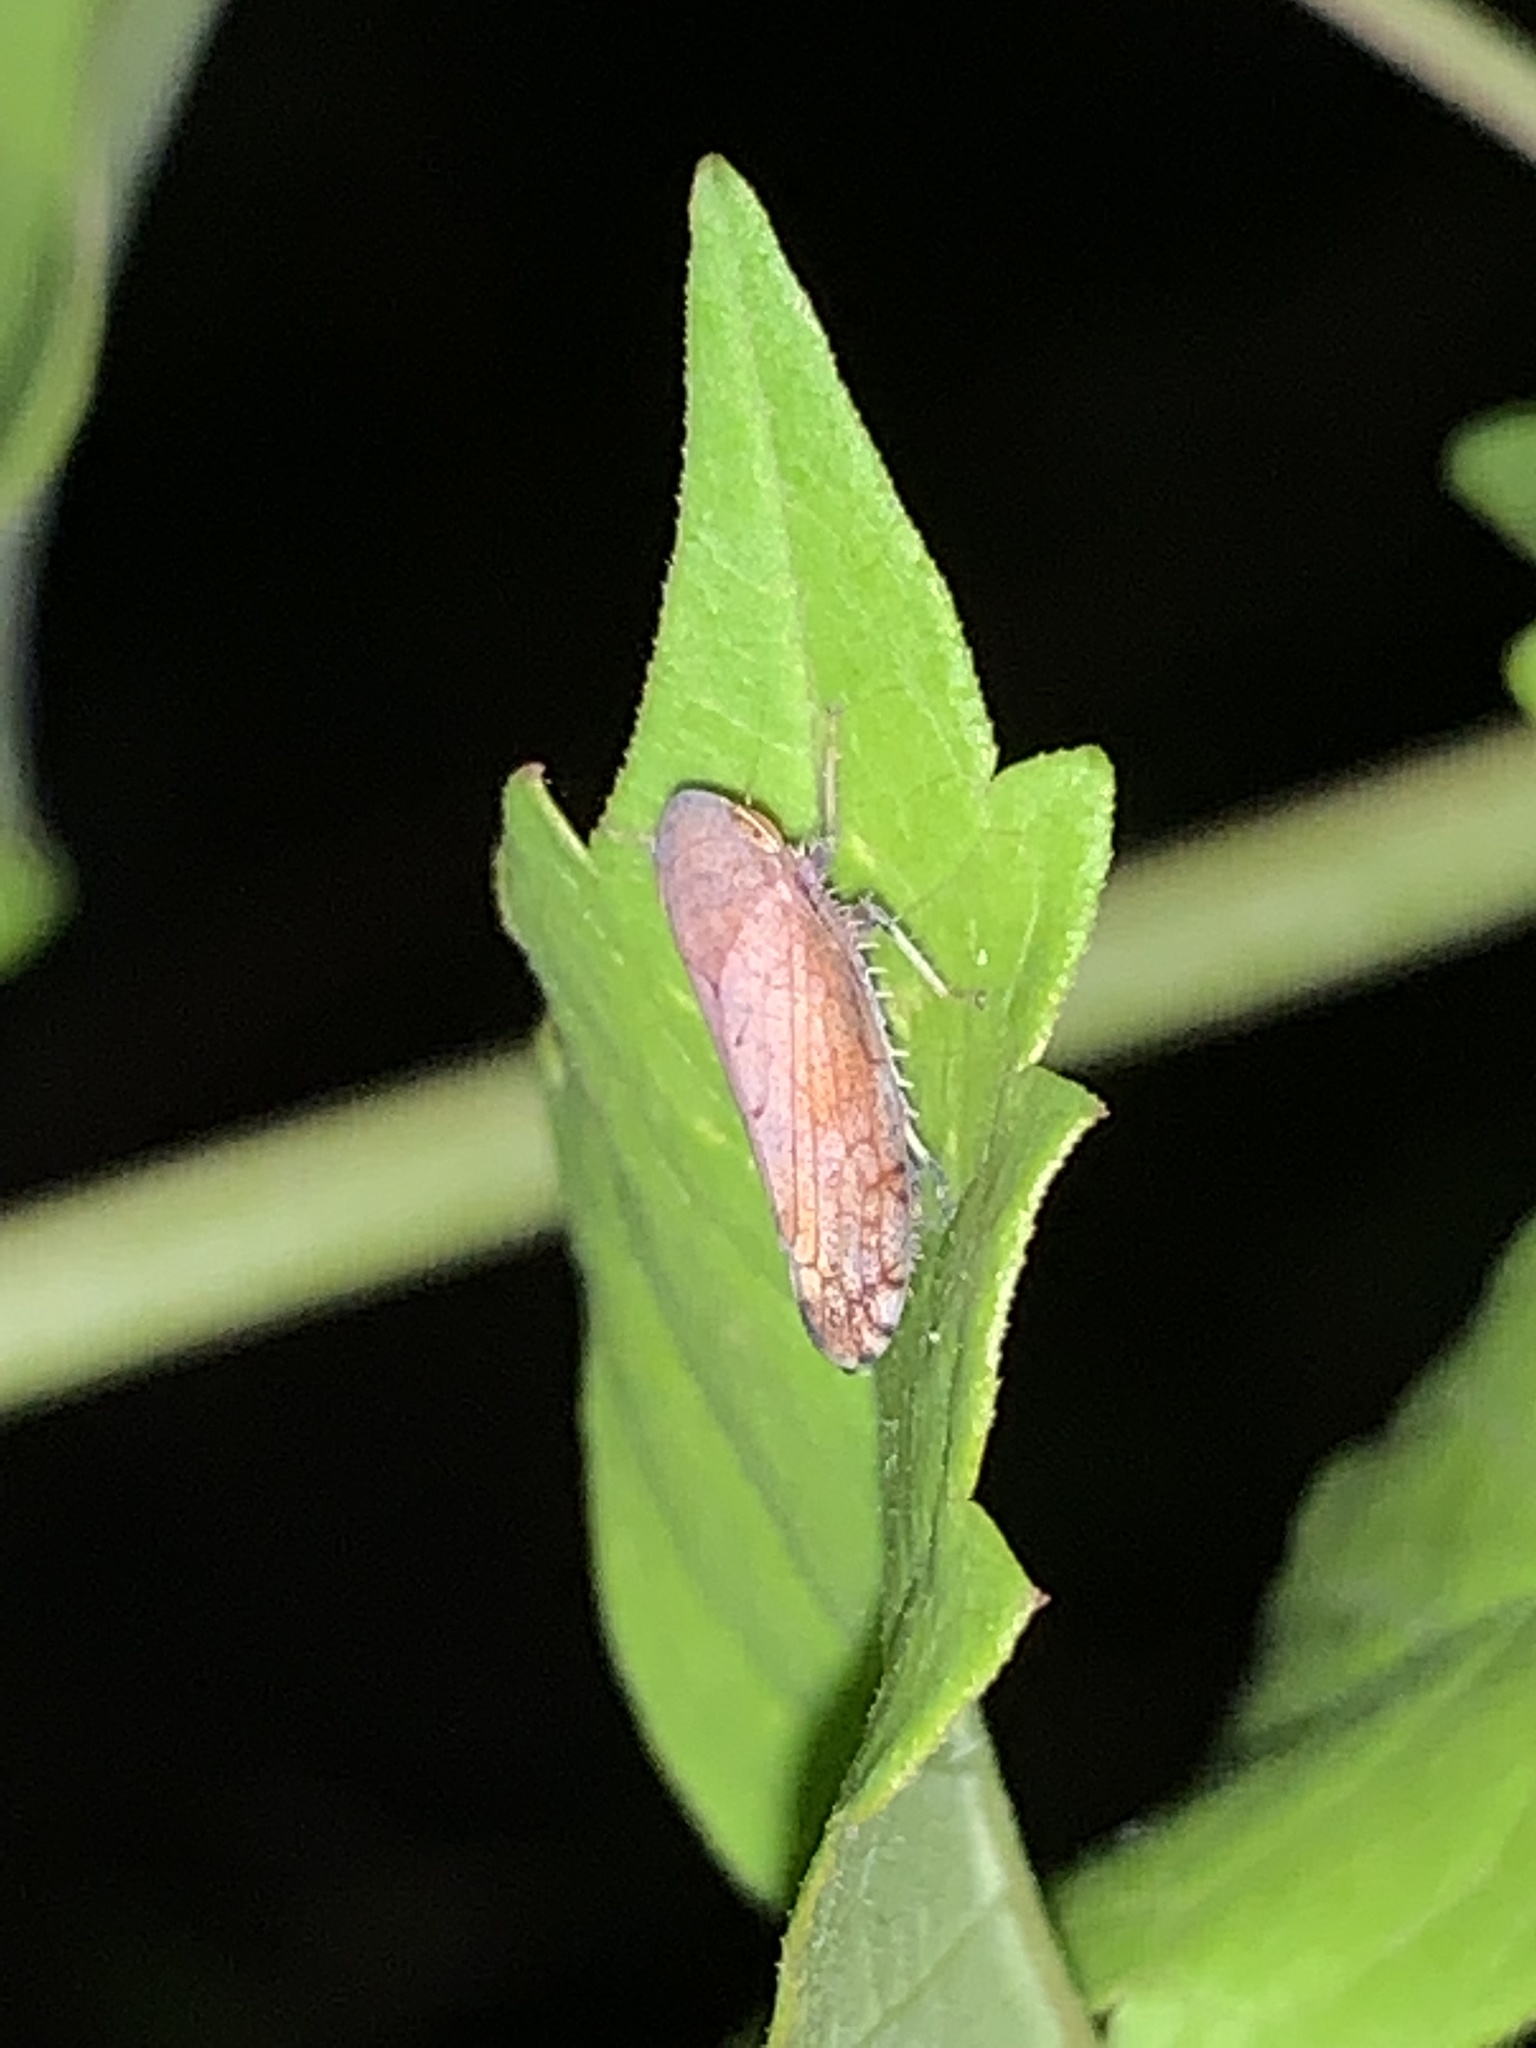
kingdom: Animalia
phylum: Arthropoda
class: Insecta
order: Hemiptera
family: Cicadellidae
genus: Fieberiella
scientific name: Fieberiella florii
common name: Flor’s leafhopper
